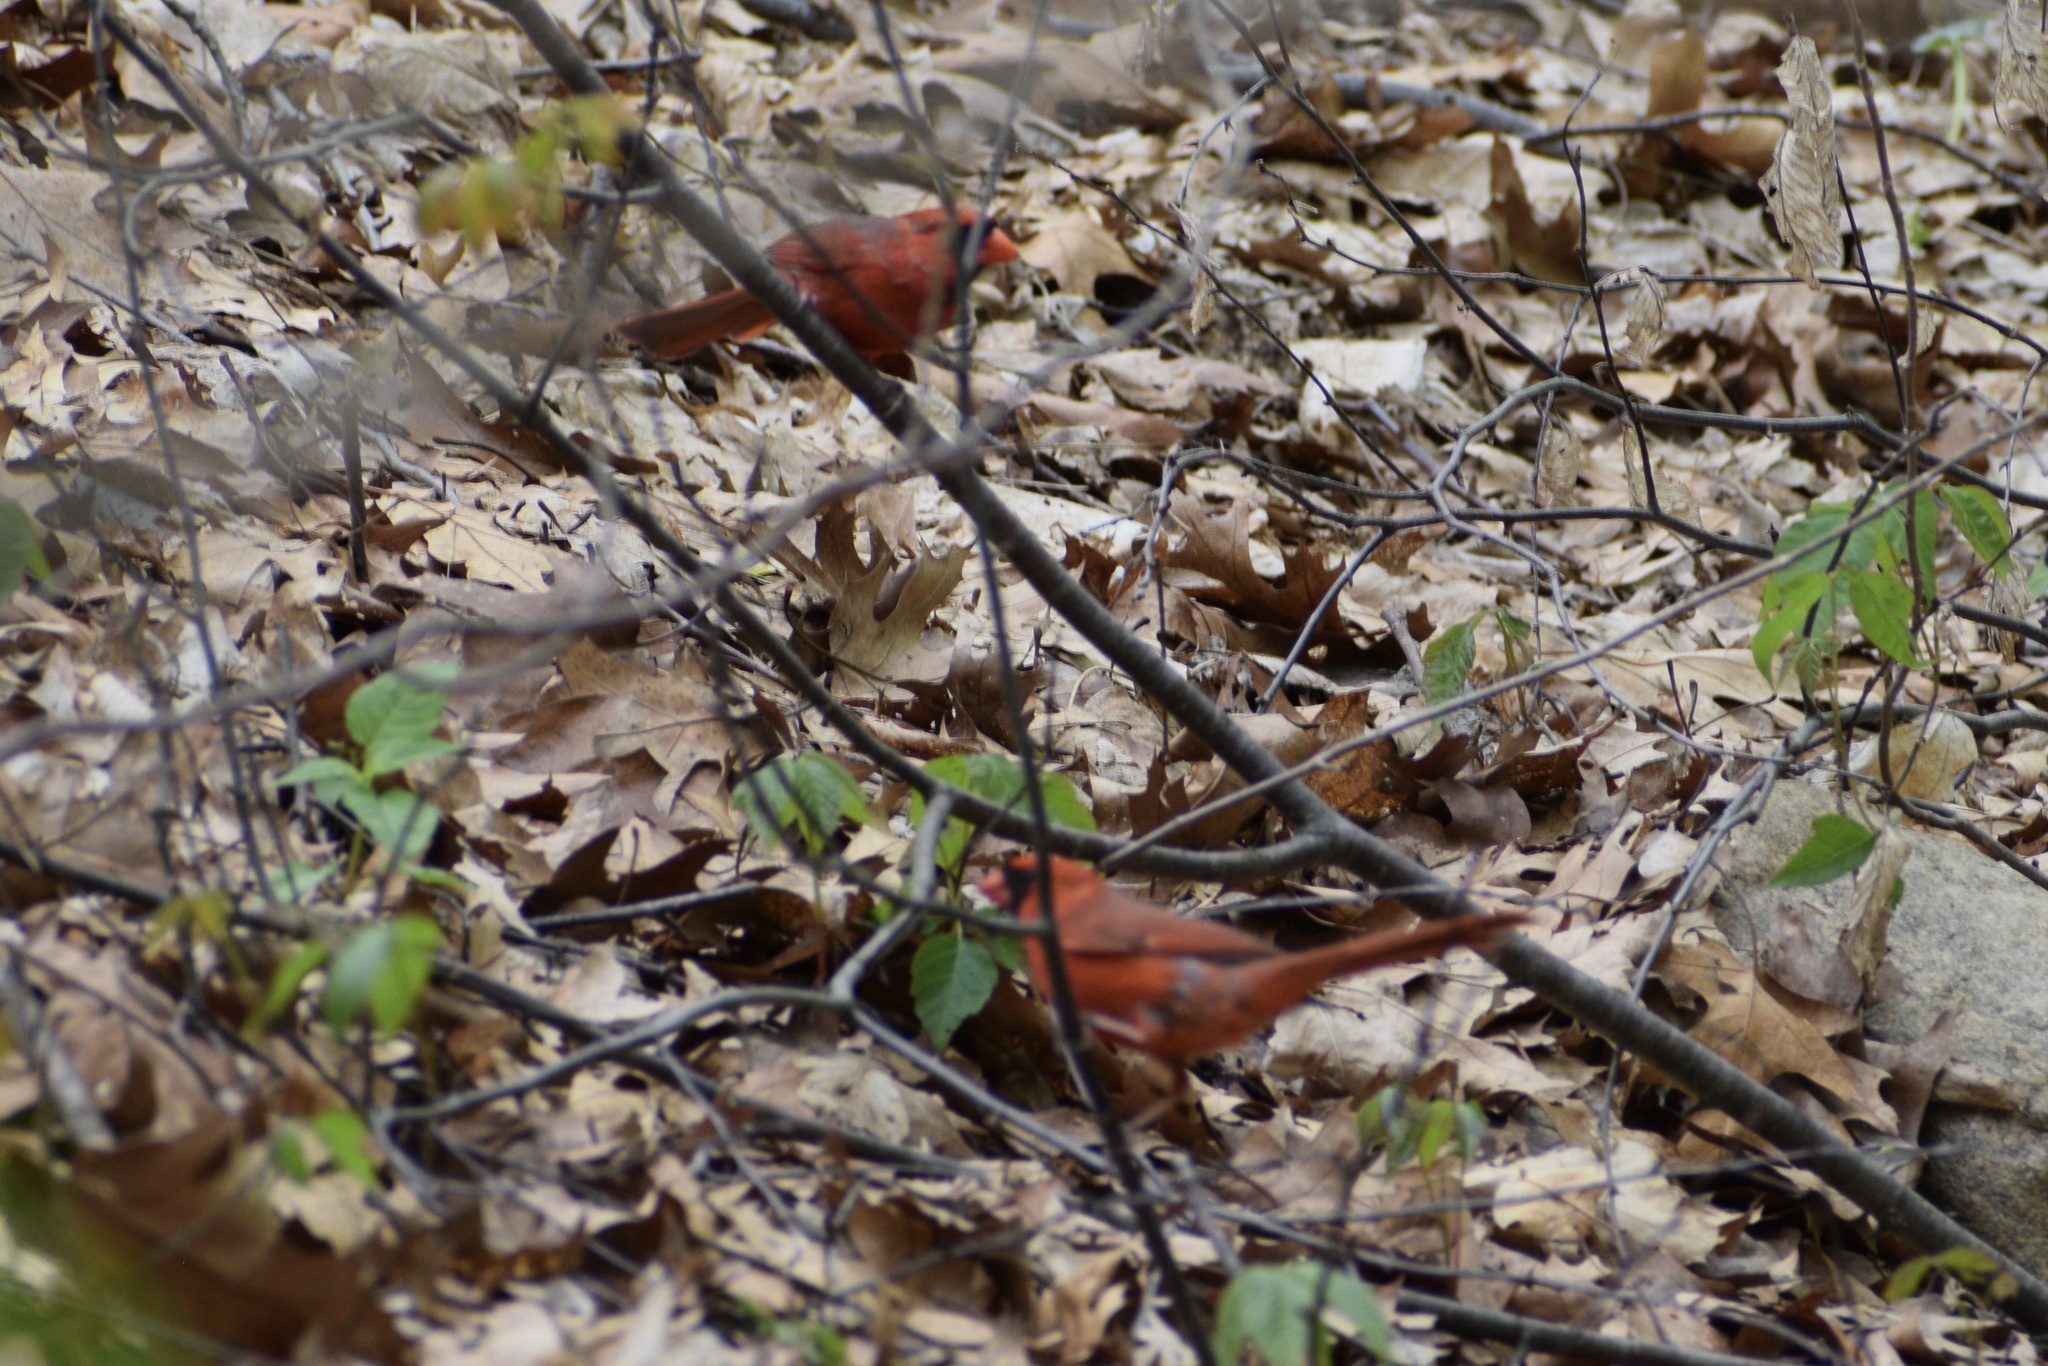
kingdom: Animalia
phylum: Chordata
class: Aves
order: Passeriformes
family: Cardinalidae
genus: Cardinalis
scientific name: Cardinalis cardinalis
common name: Northern cardinal
